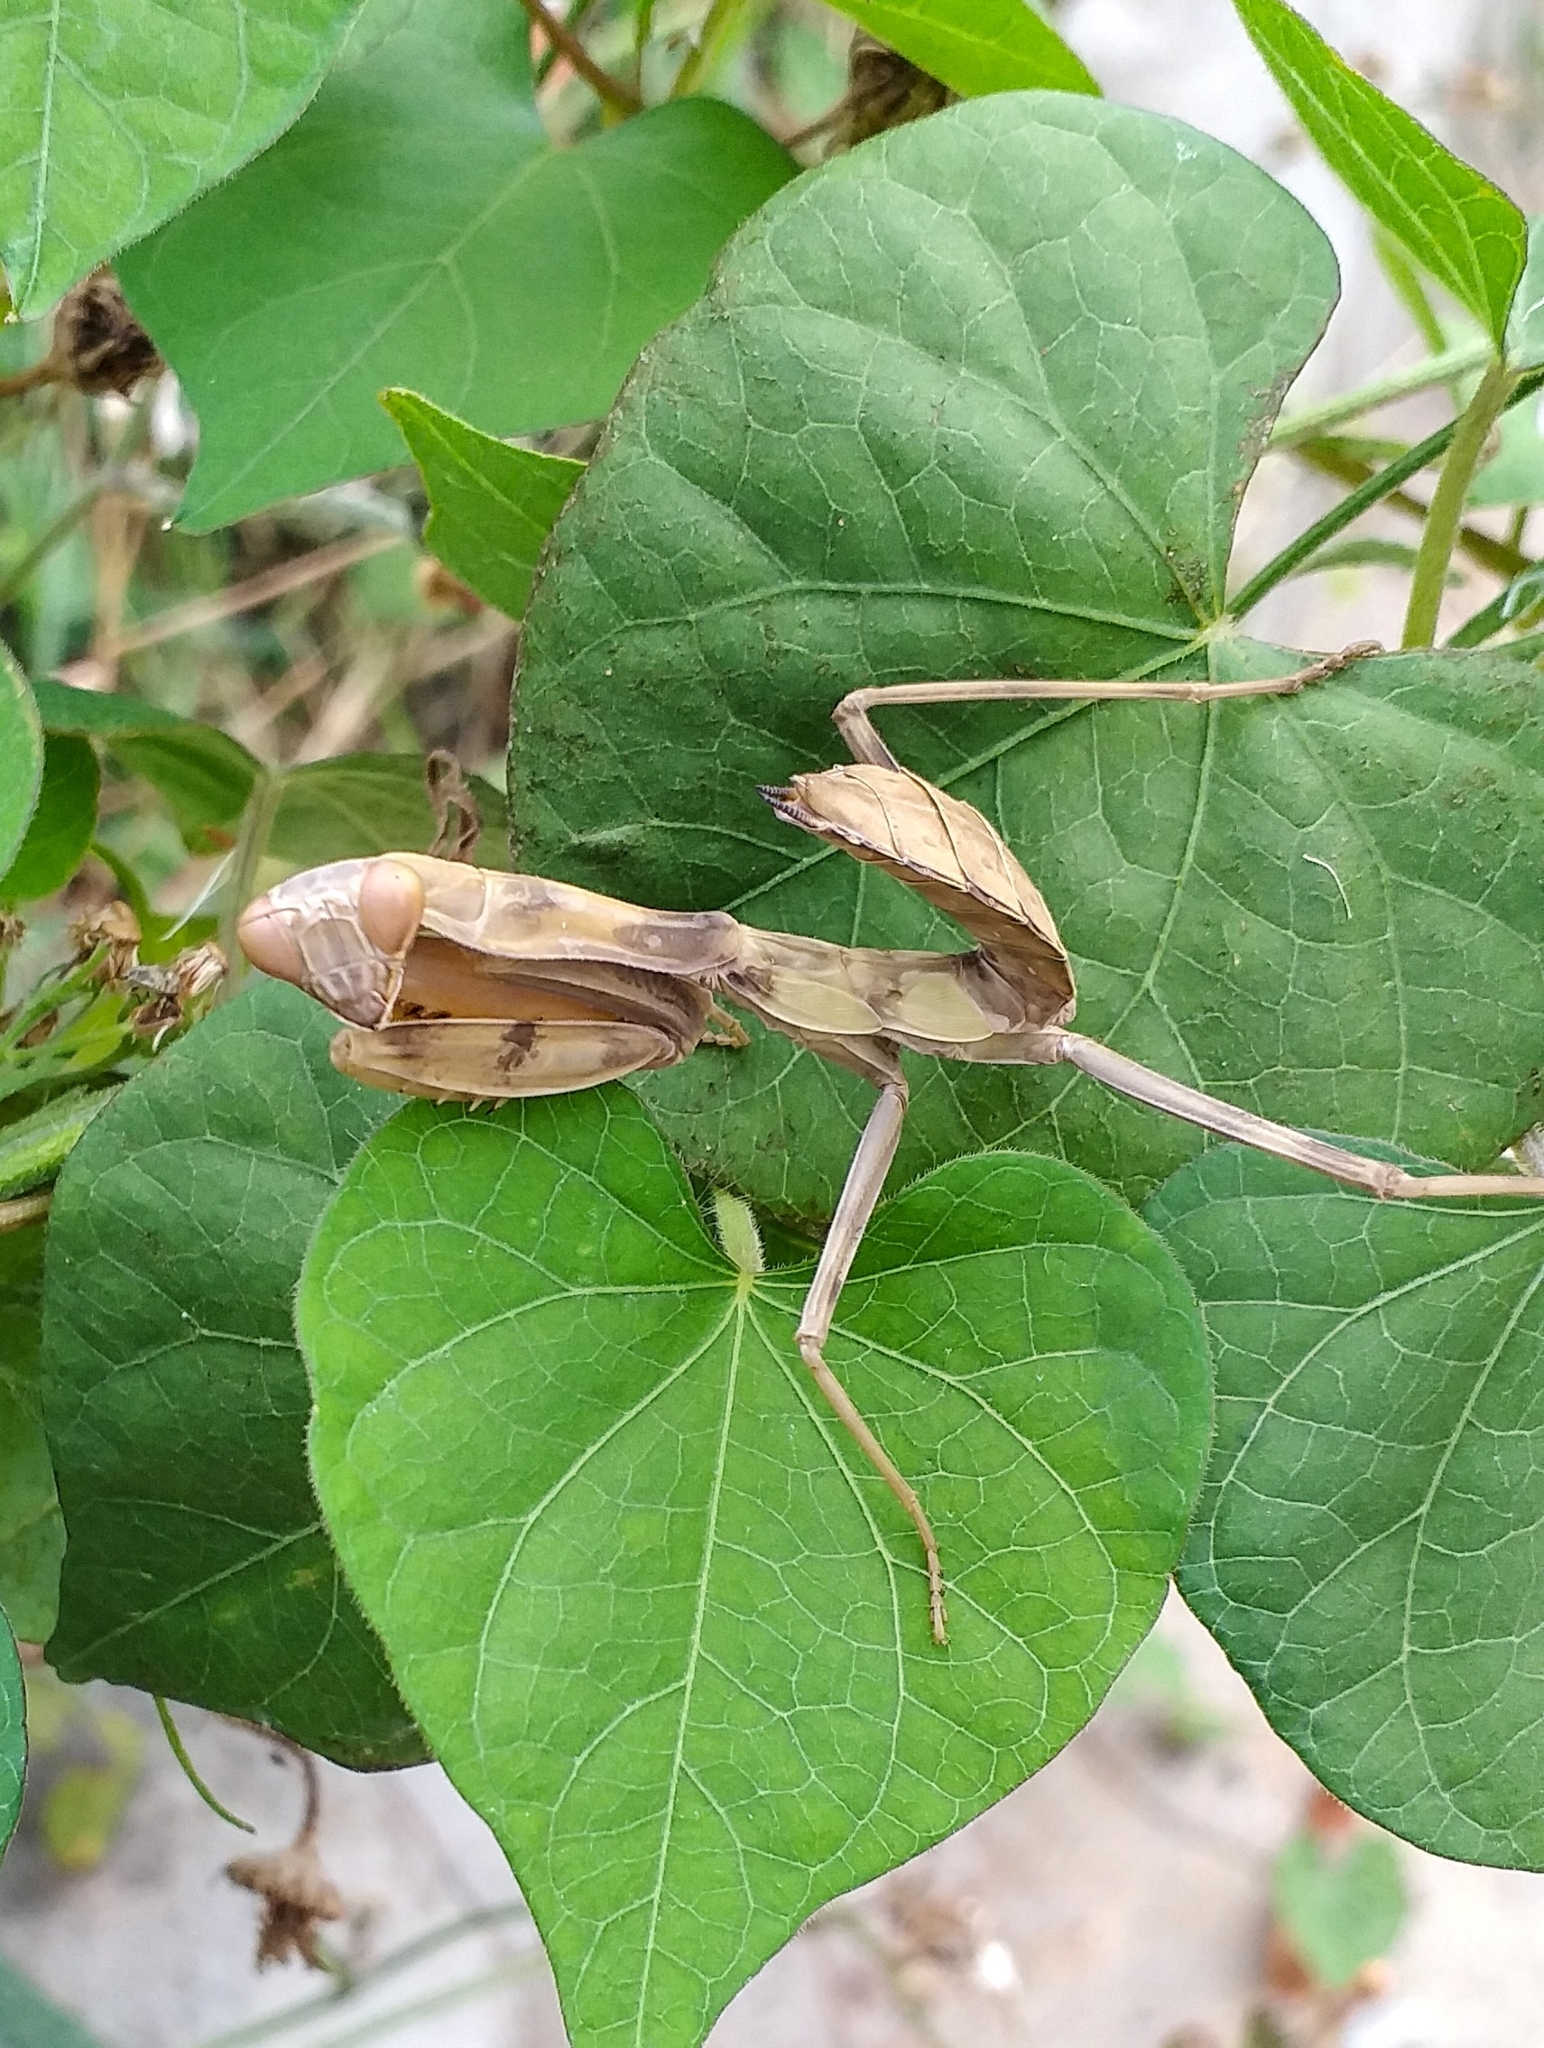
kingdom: Animalia
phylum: Arthropoda
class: Insecta
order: Mantodea
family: Mantidae
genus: Hierodula
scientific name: Hierodula tenuidentata
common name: Giant asian mantis
